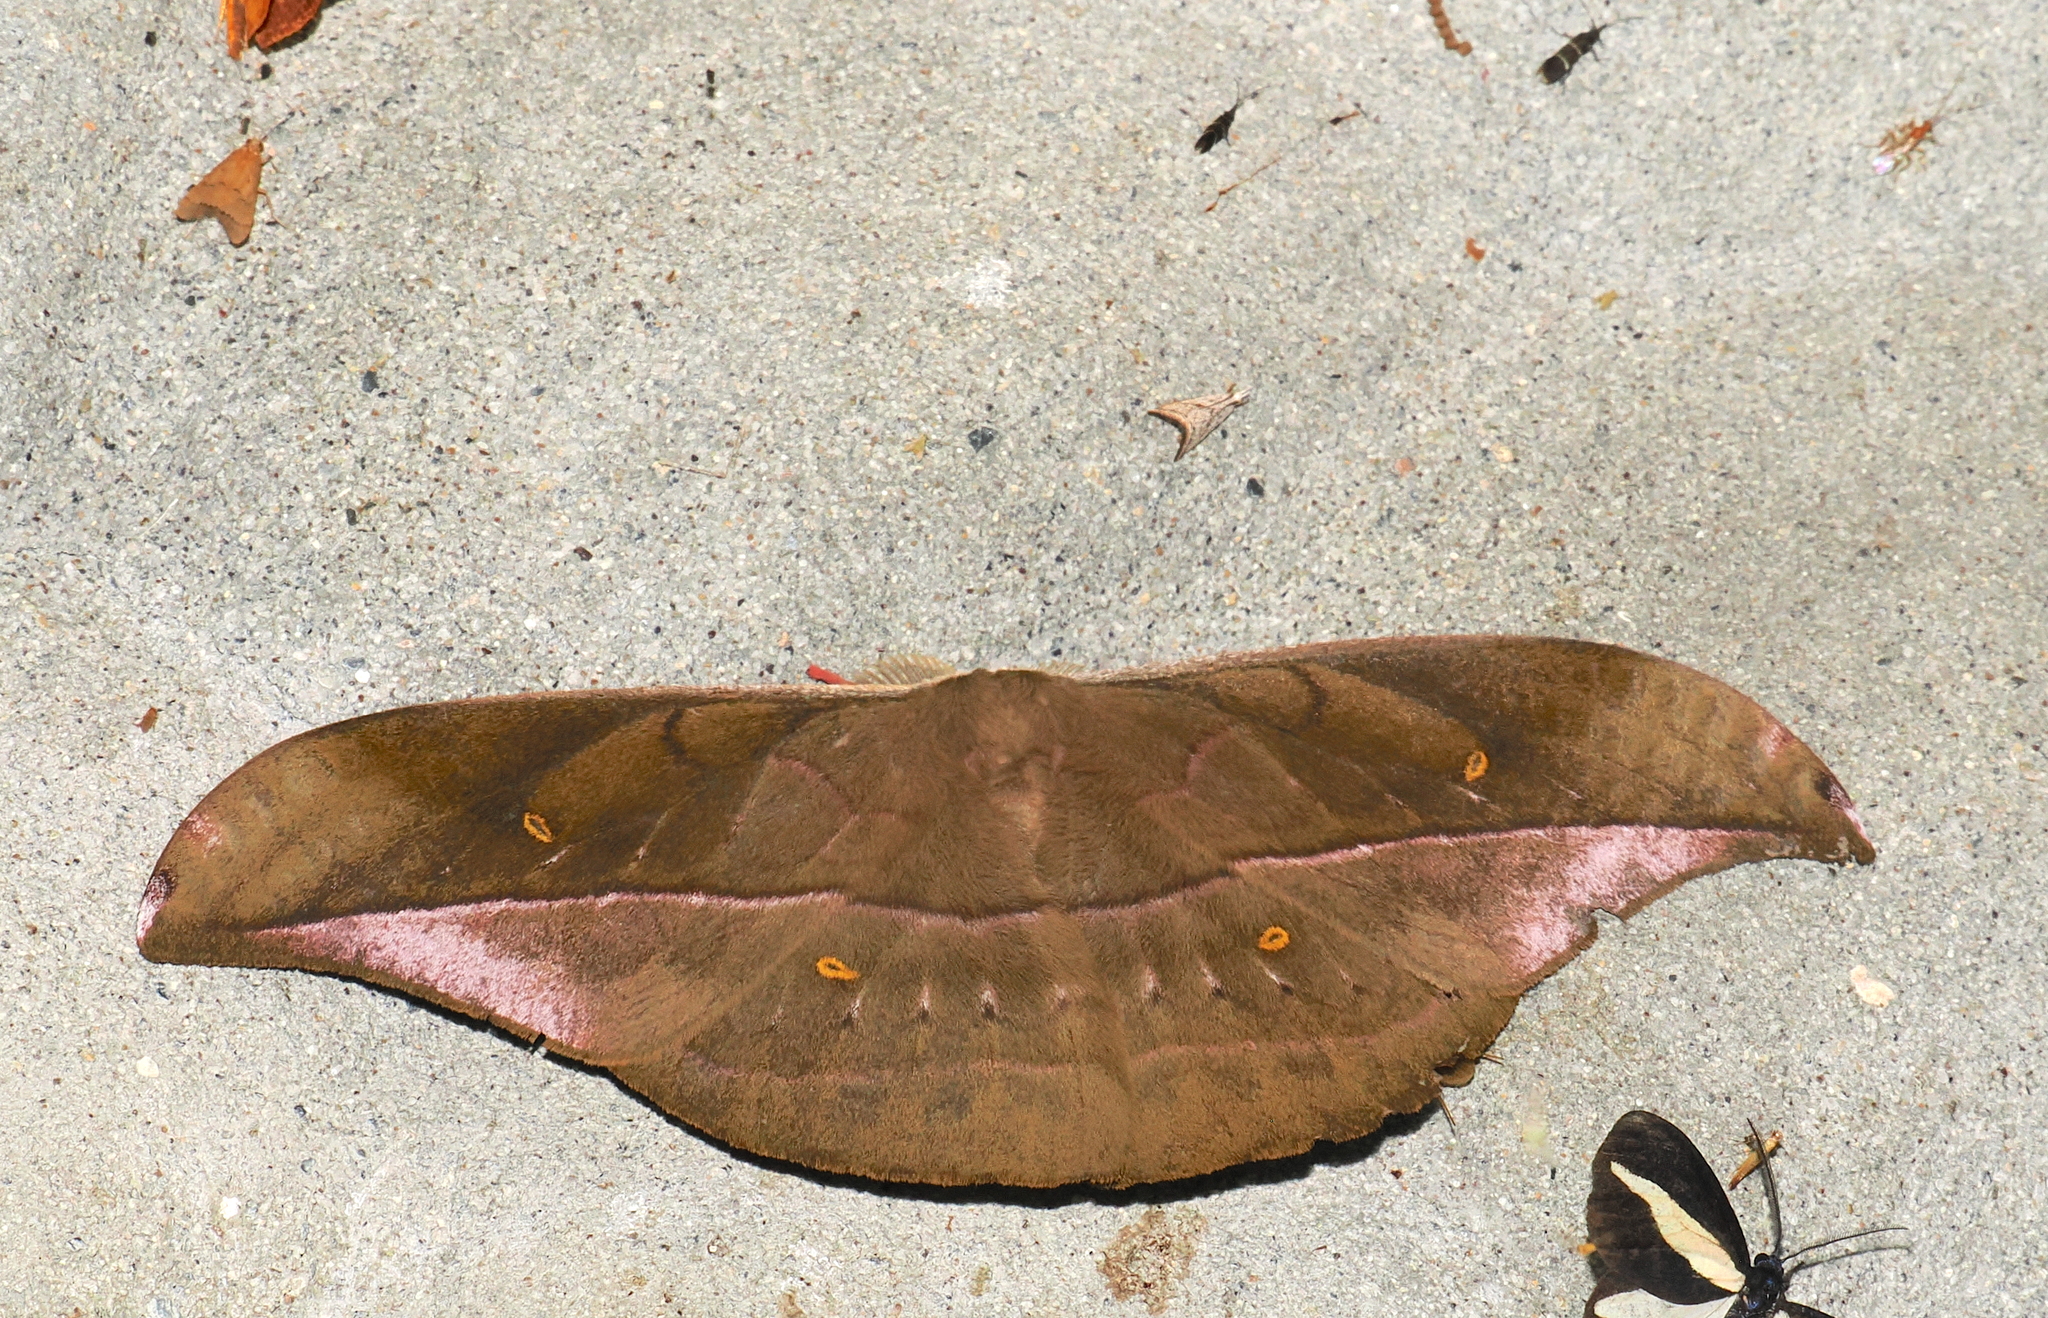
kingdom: Animalia
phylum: Arthropoda
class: Insecta
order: Lepidoptera
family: Saturniidae
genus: Copaxa
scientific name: Copaxa rufinans
